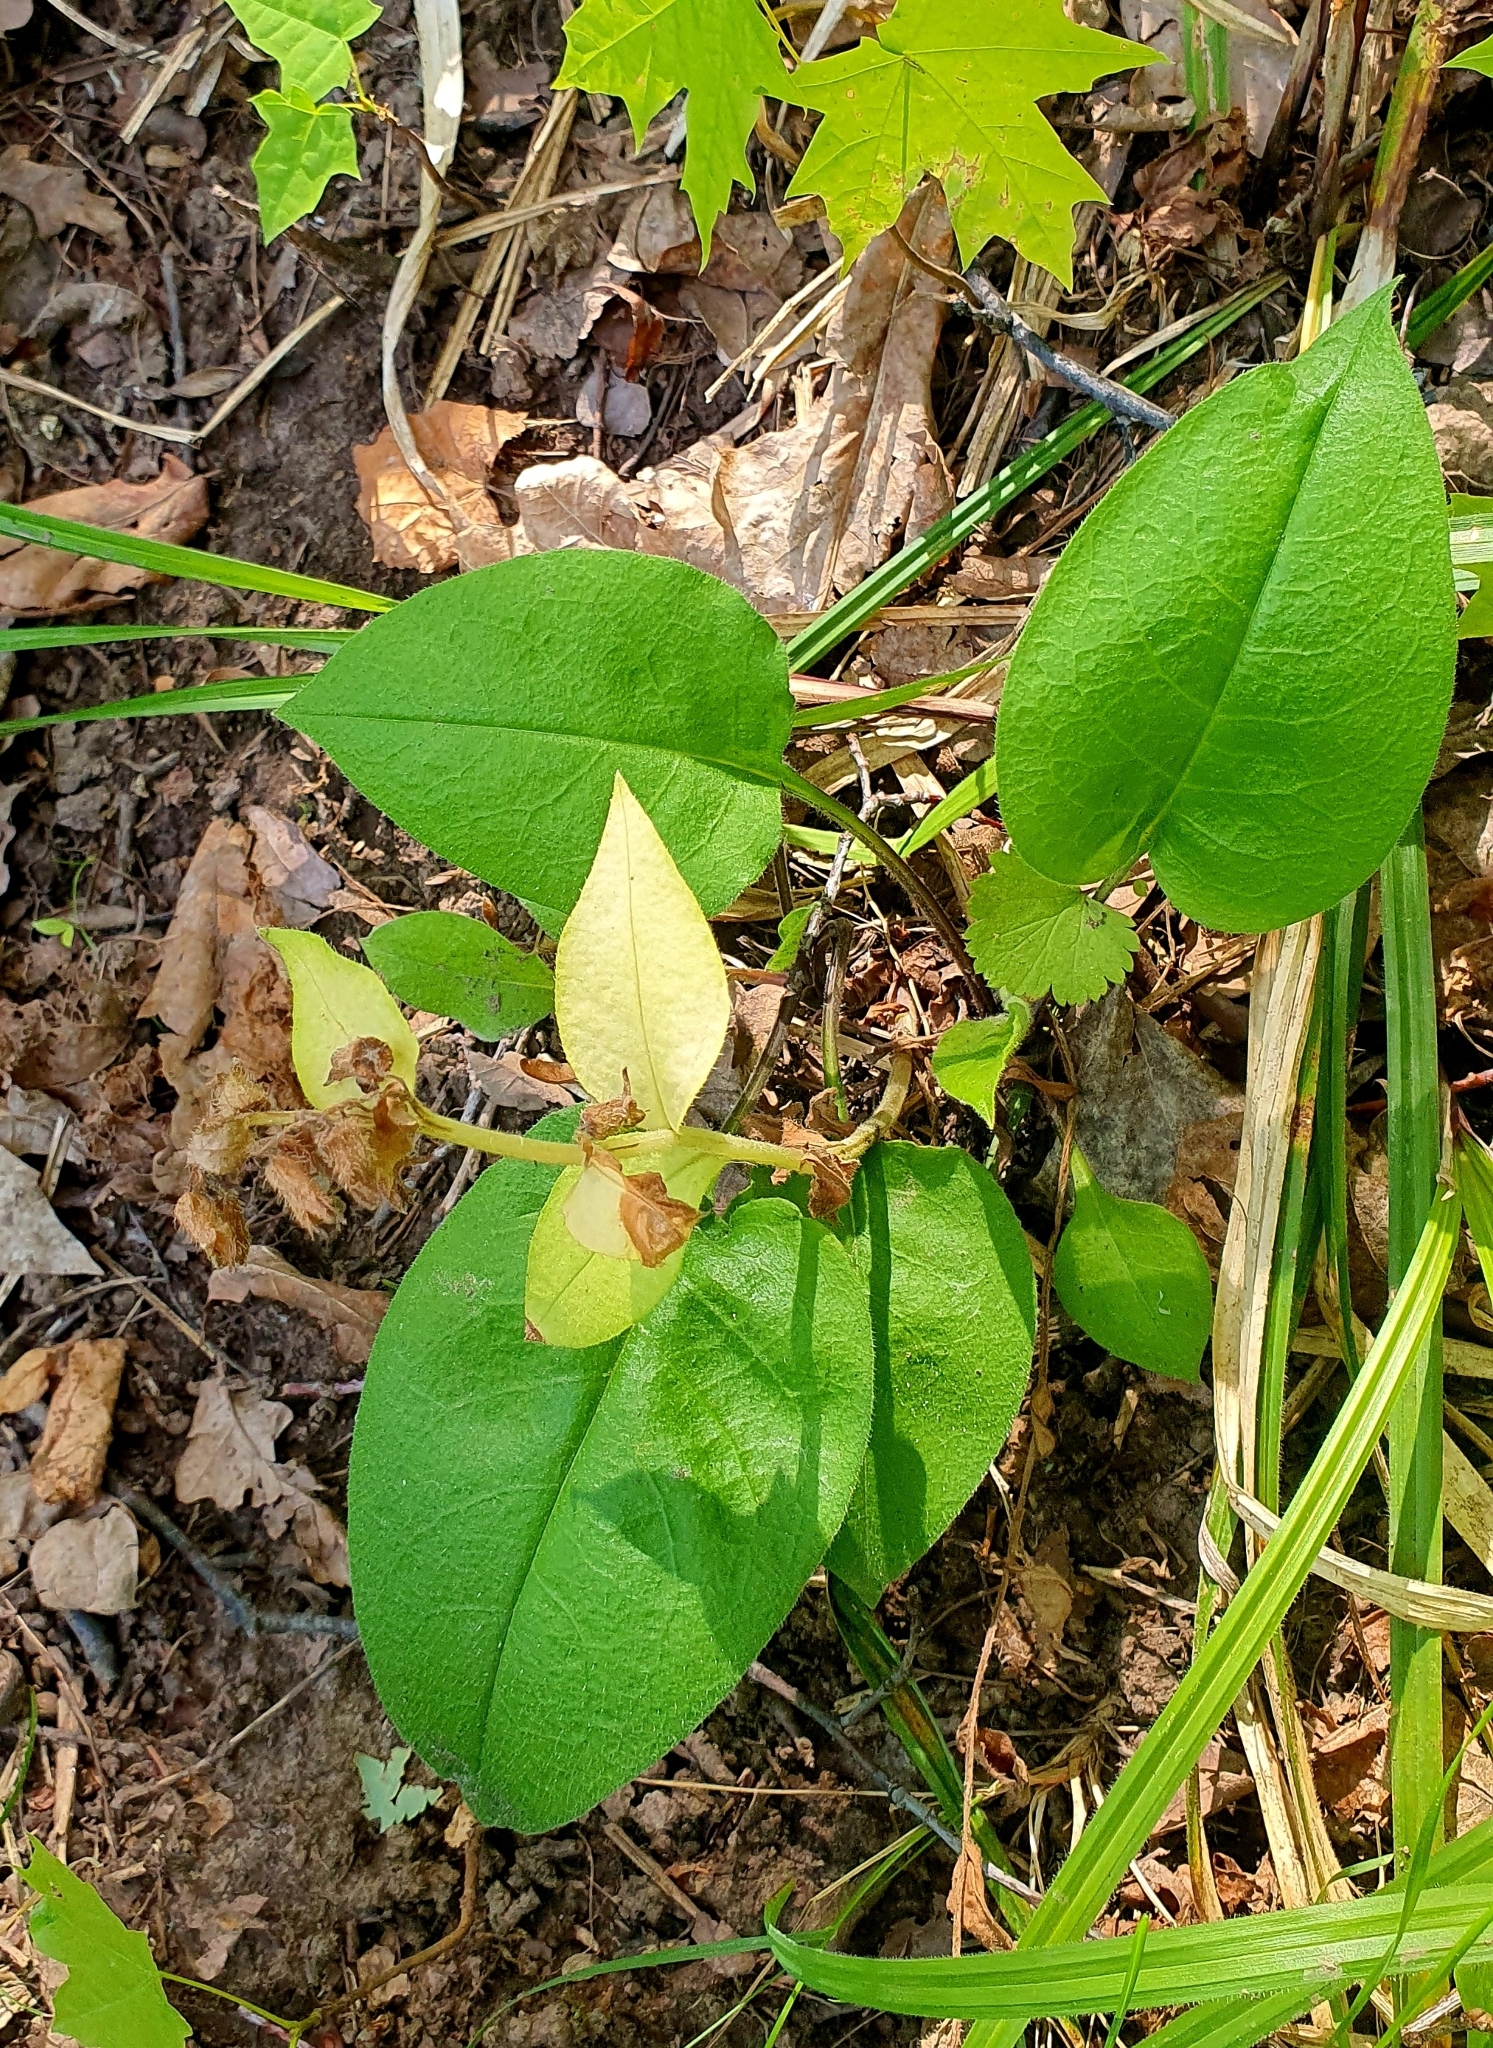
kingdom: Plantae
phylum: Tracheophyta
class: Magnoliopsida
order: Boraginales
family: Boraginaceae
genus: Pulmonaria
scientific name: Pulmonaria obscura
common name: Suffolk lungwort
